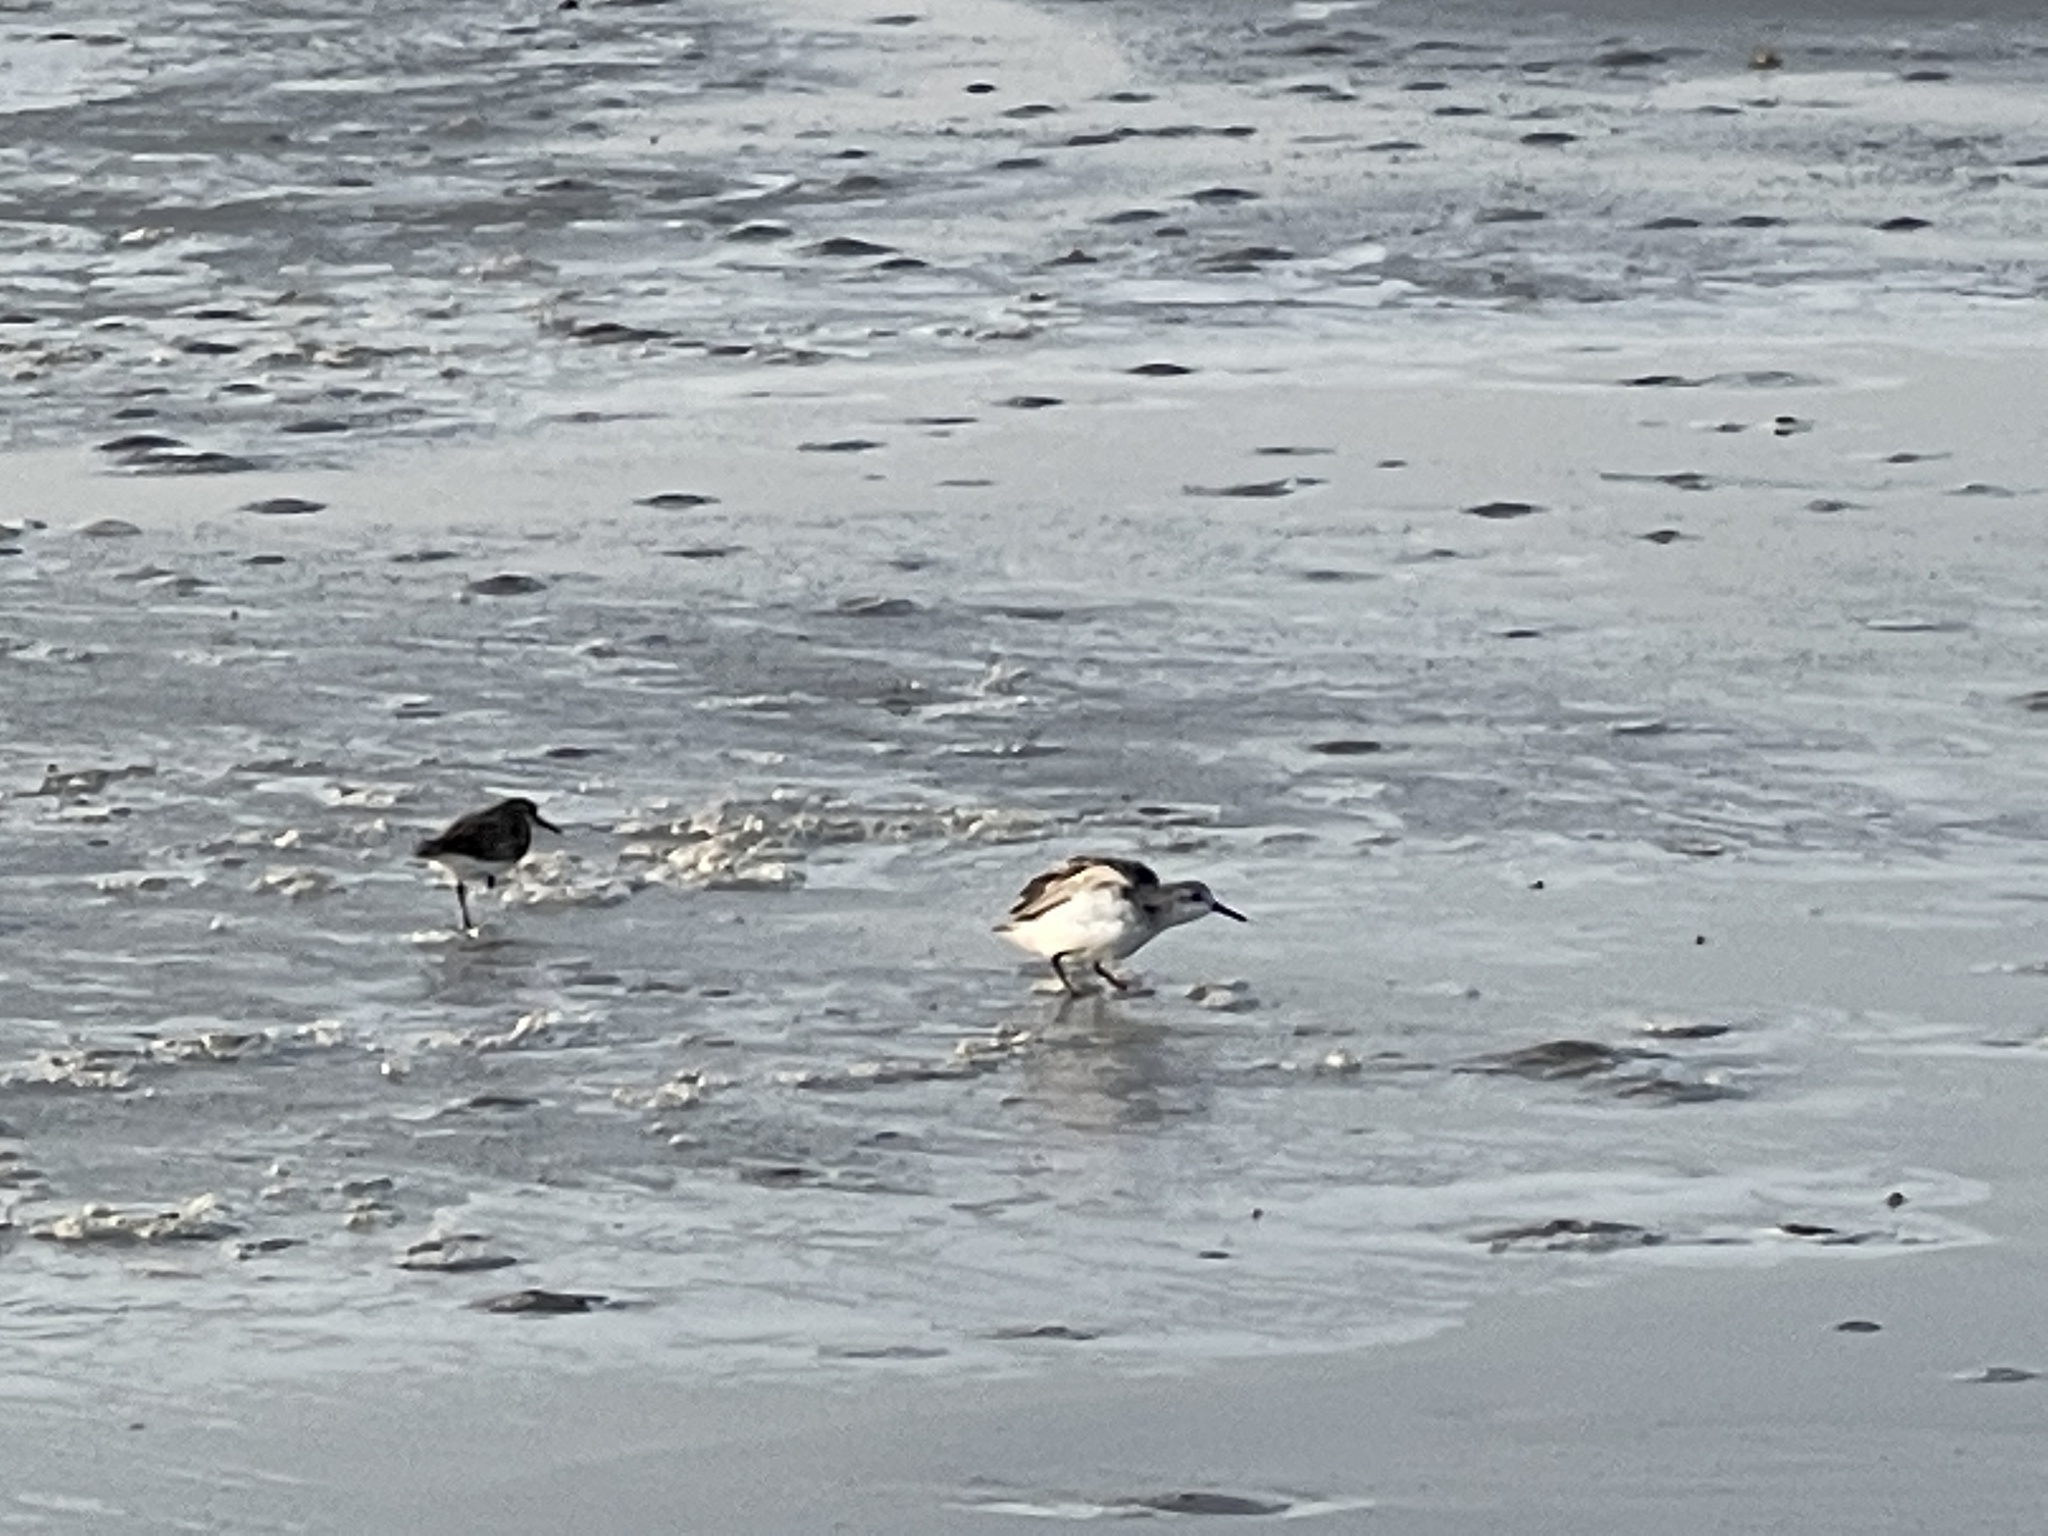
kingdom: Animalia
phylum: Chordata
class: Aves
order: Charadriiformes
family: Scolopacidae
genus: Calidris
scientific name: Calidris alba
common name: Sanderling
